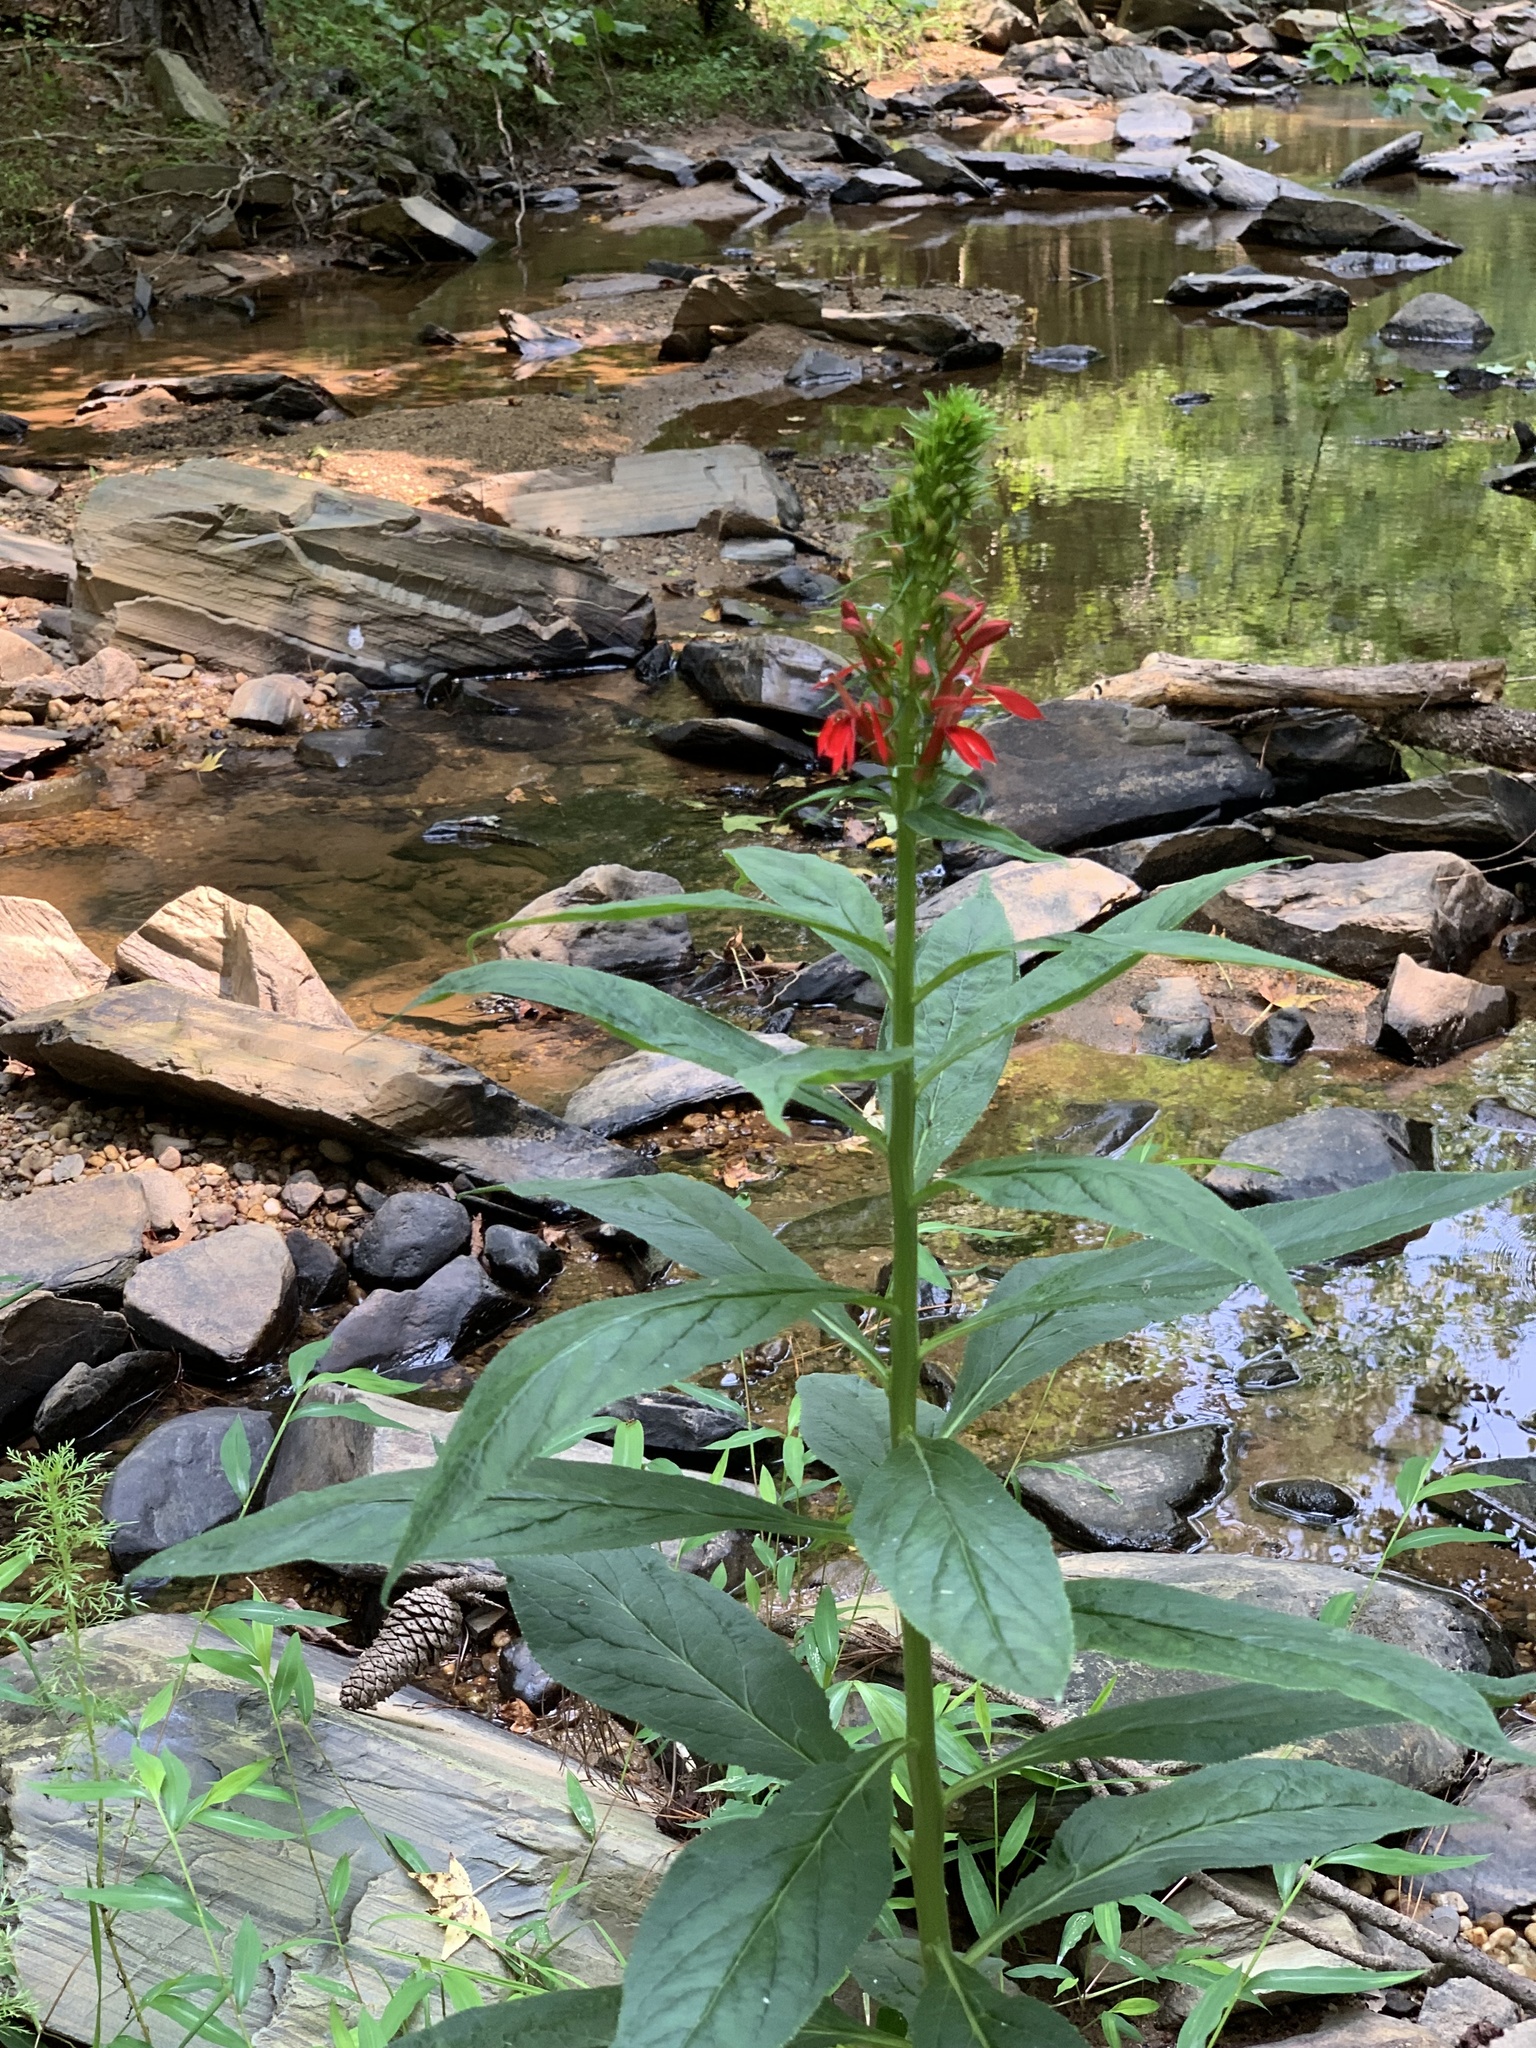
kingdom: Plantae
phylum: Tracheophyta
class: Magnoliopsida
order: Asterales
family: Campanulaceae
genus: Lobelia
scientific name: Lobelia cardinalis
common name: Cardinal flower
